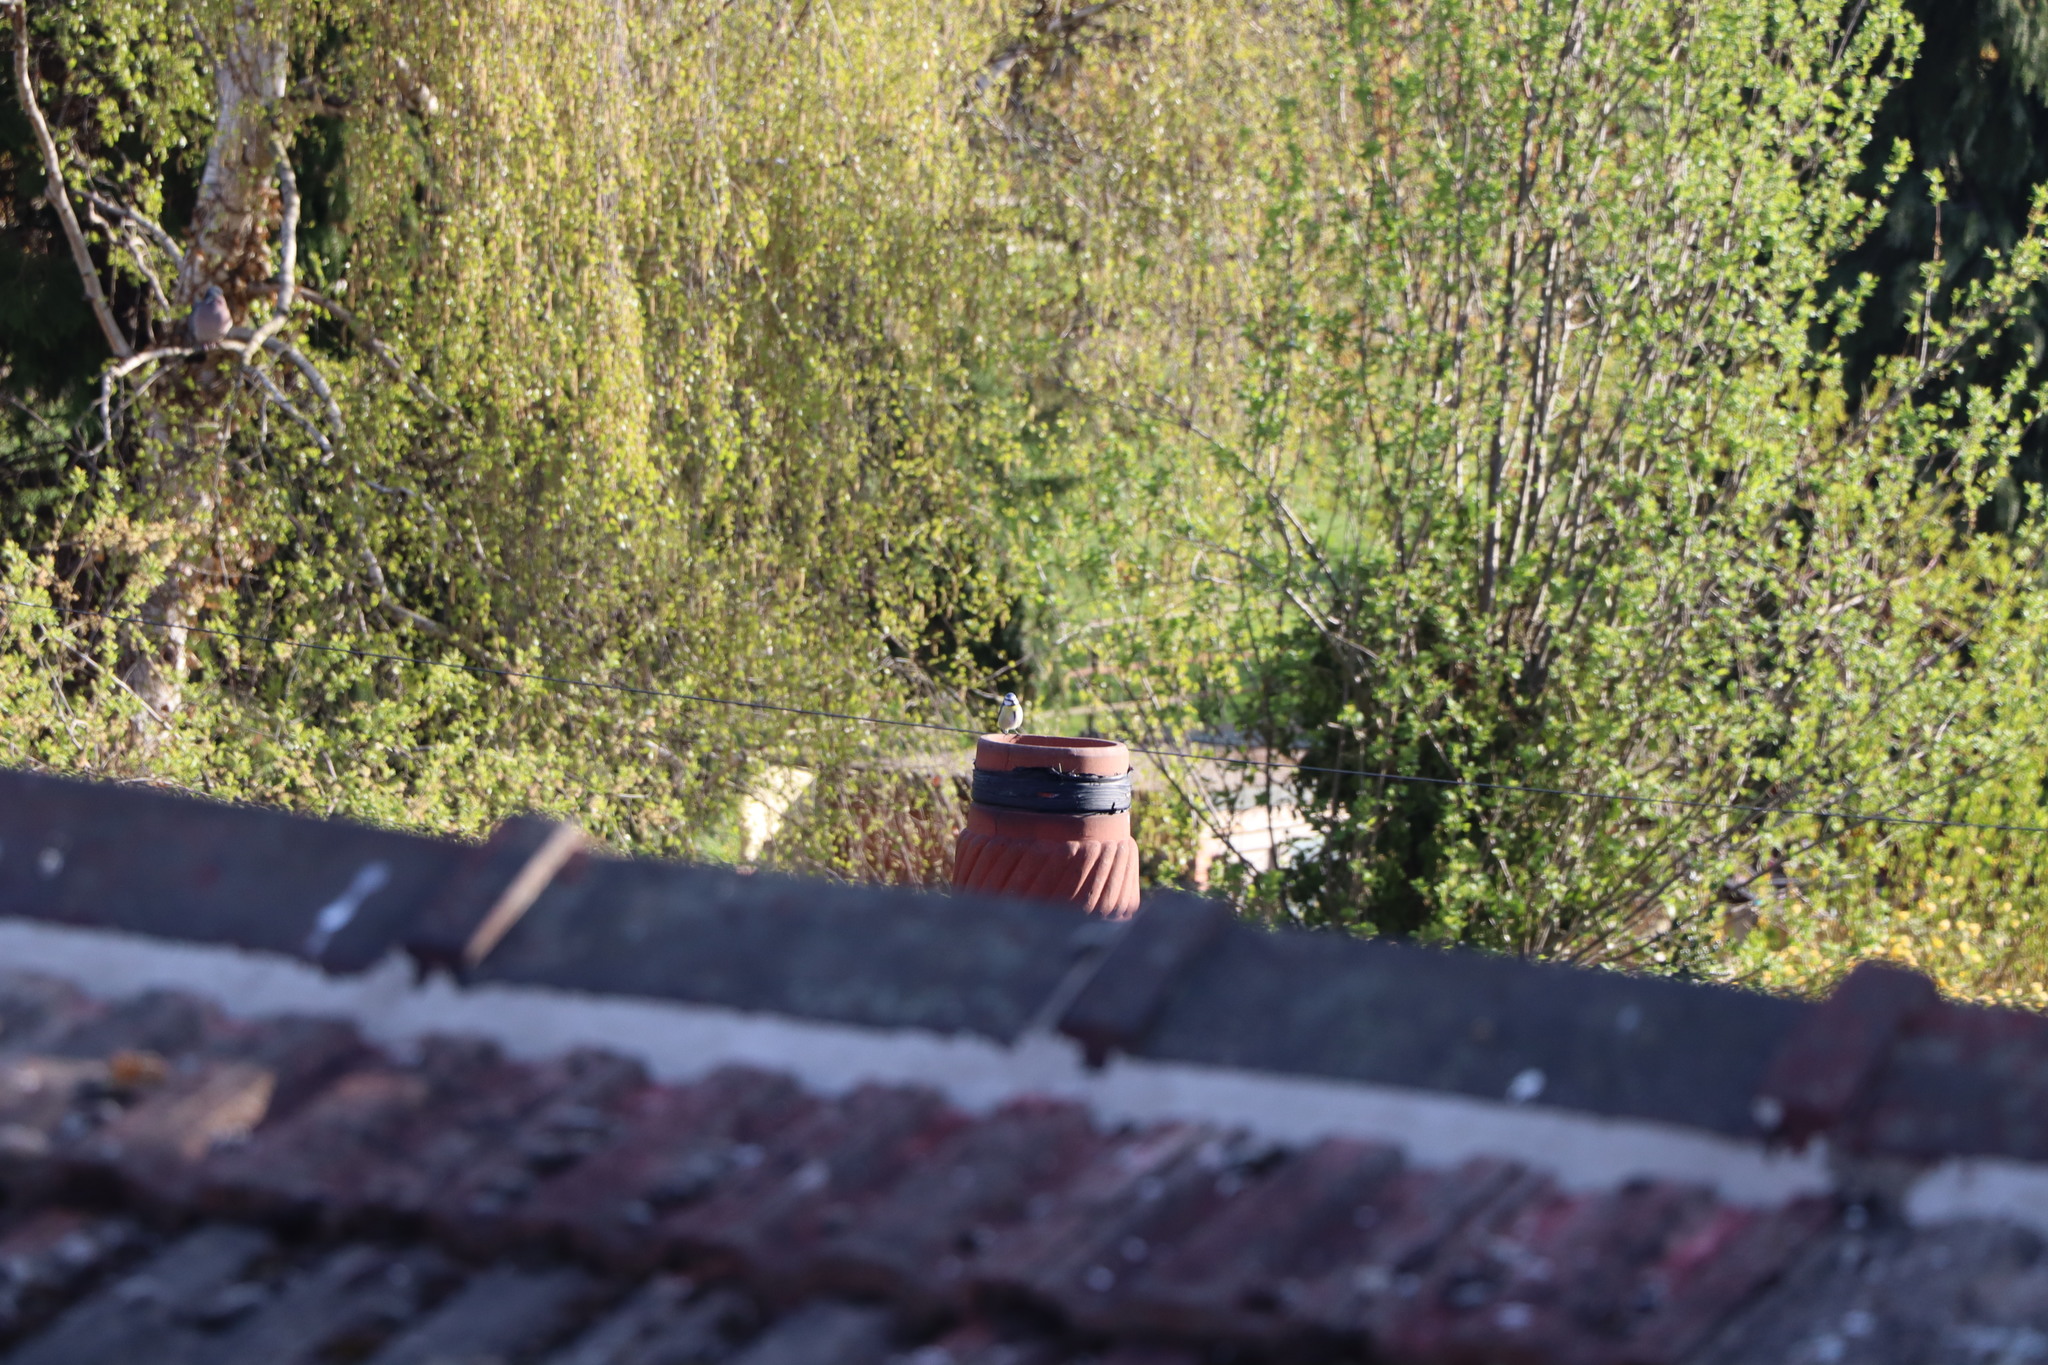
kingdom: Animalia
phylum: Chordata
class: Aves
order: Passeriformes
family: Paridae
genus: Cyanistes
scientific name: Cyanistes caeruleus
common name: Eurasian blue tit
